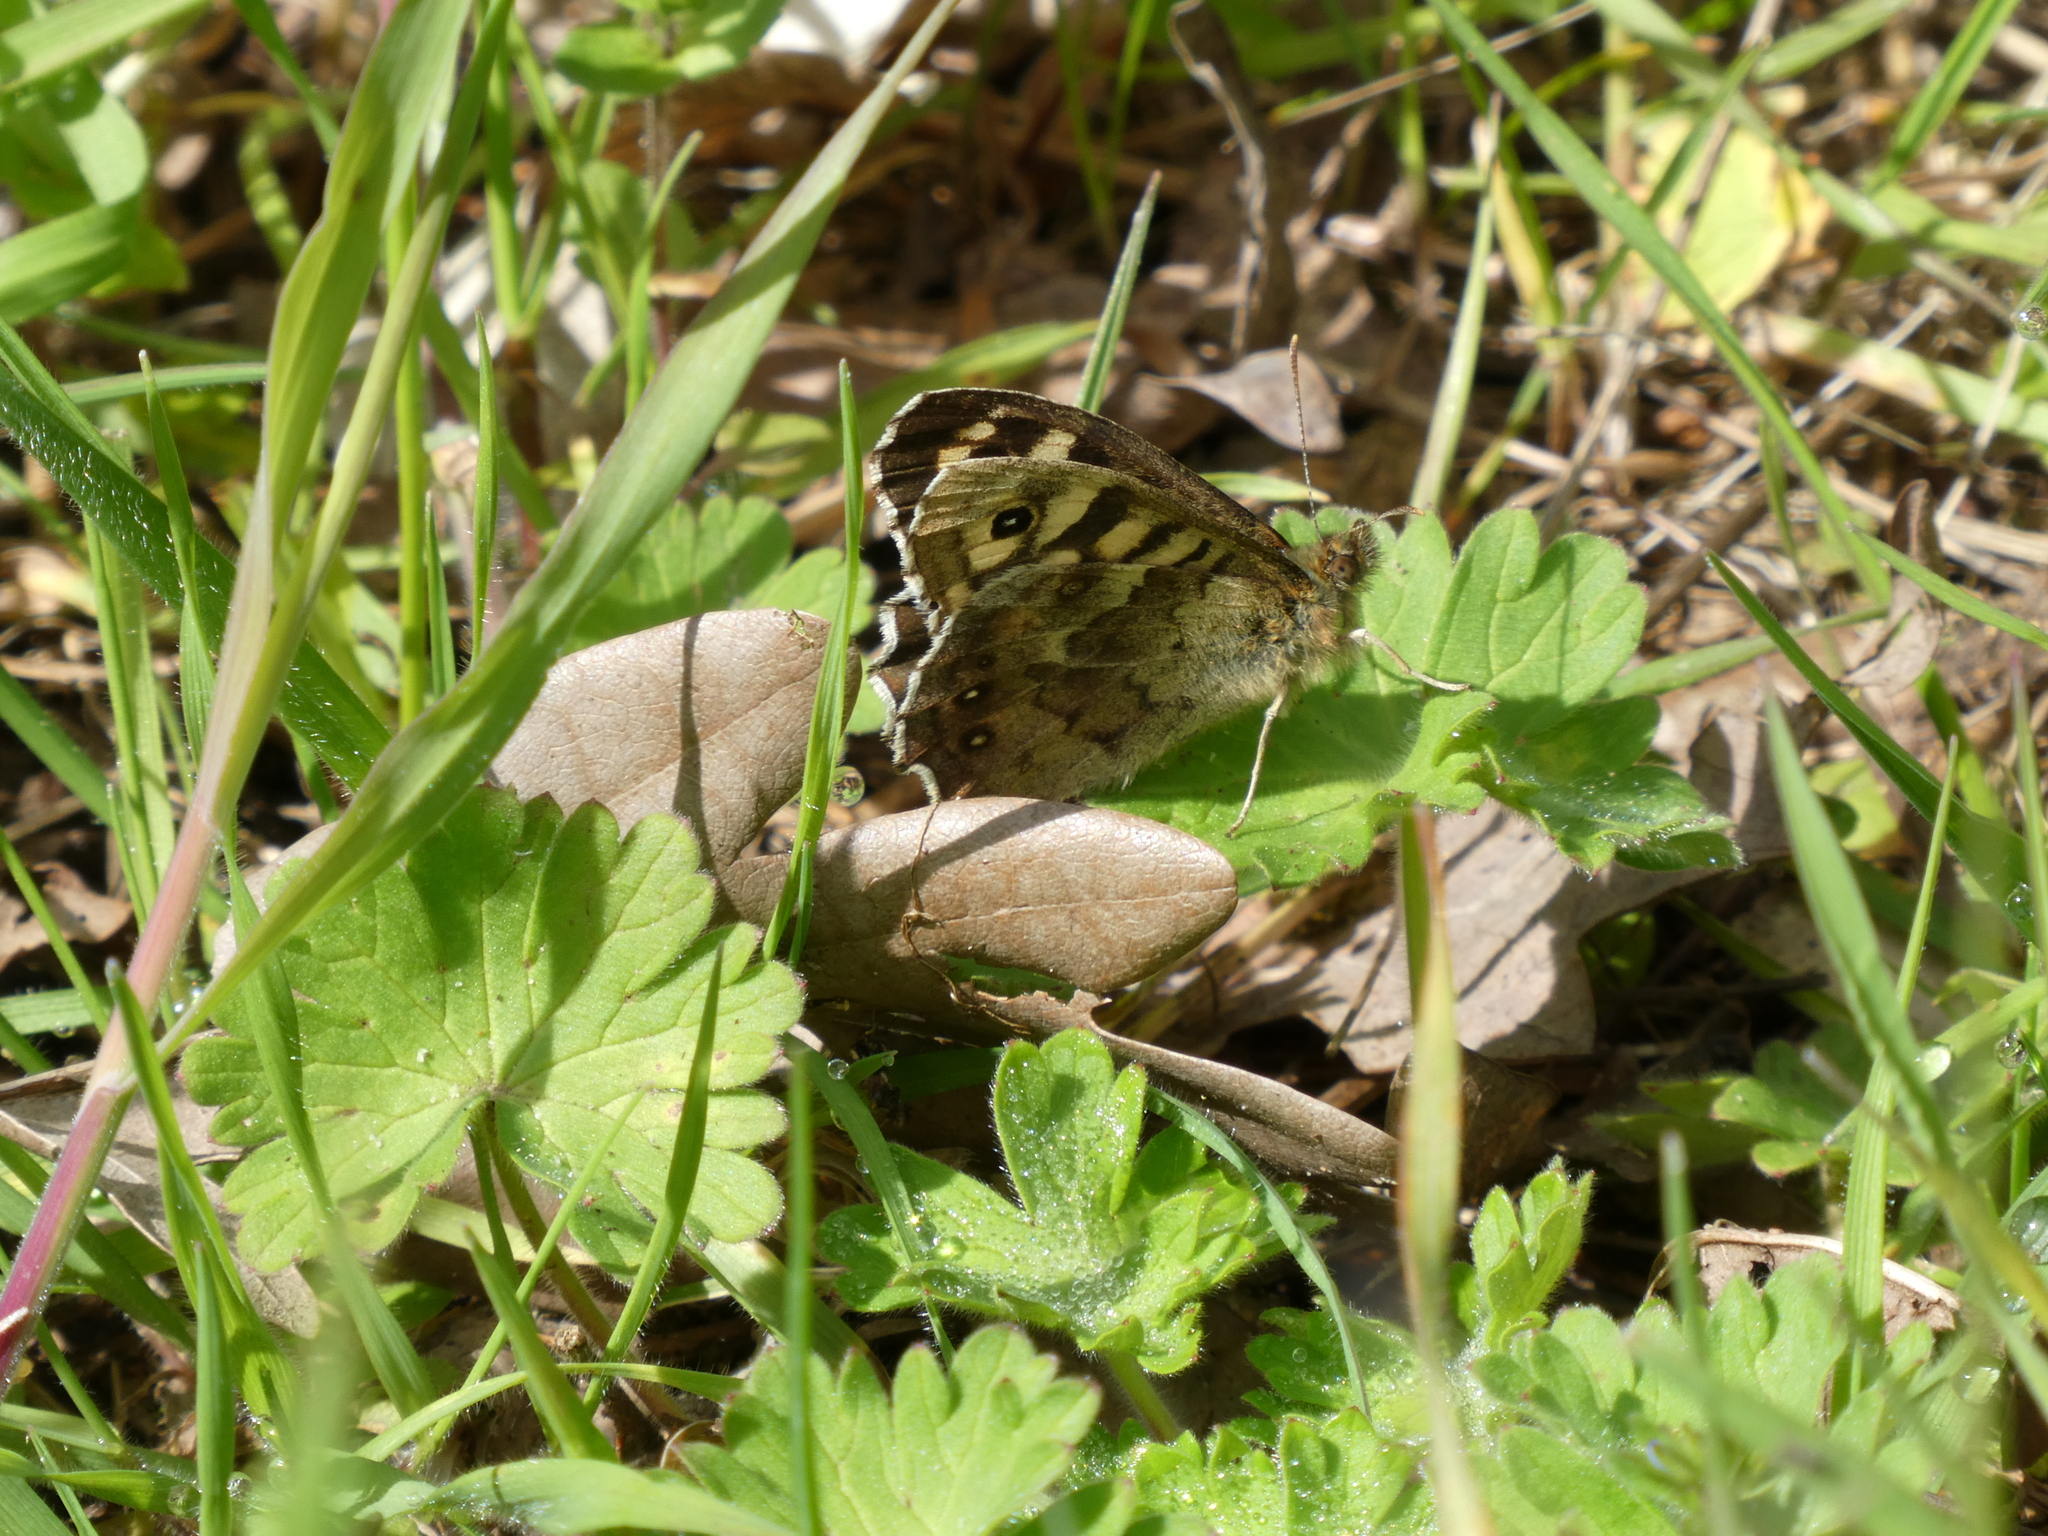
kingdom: Animalia
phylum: Arthropoda
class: Insecta
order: Lepidoptera
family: Nymphalidae
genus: Pararge
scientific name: Pararge aegeria
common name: Speckled wood
